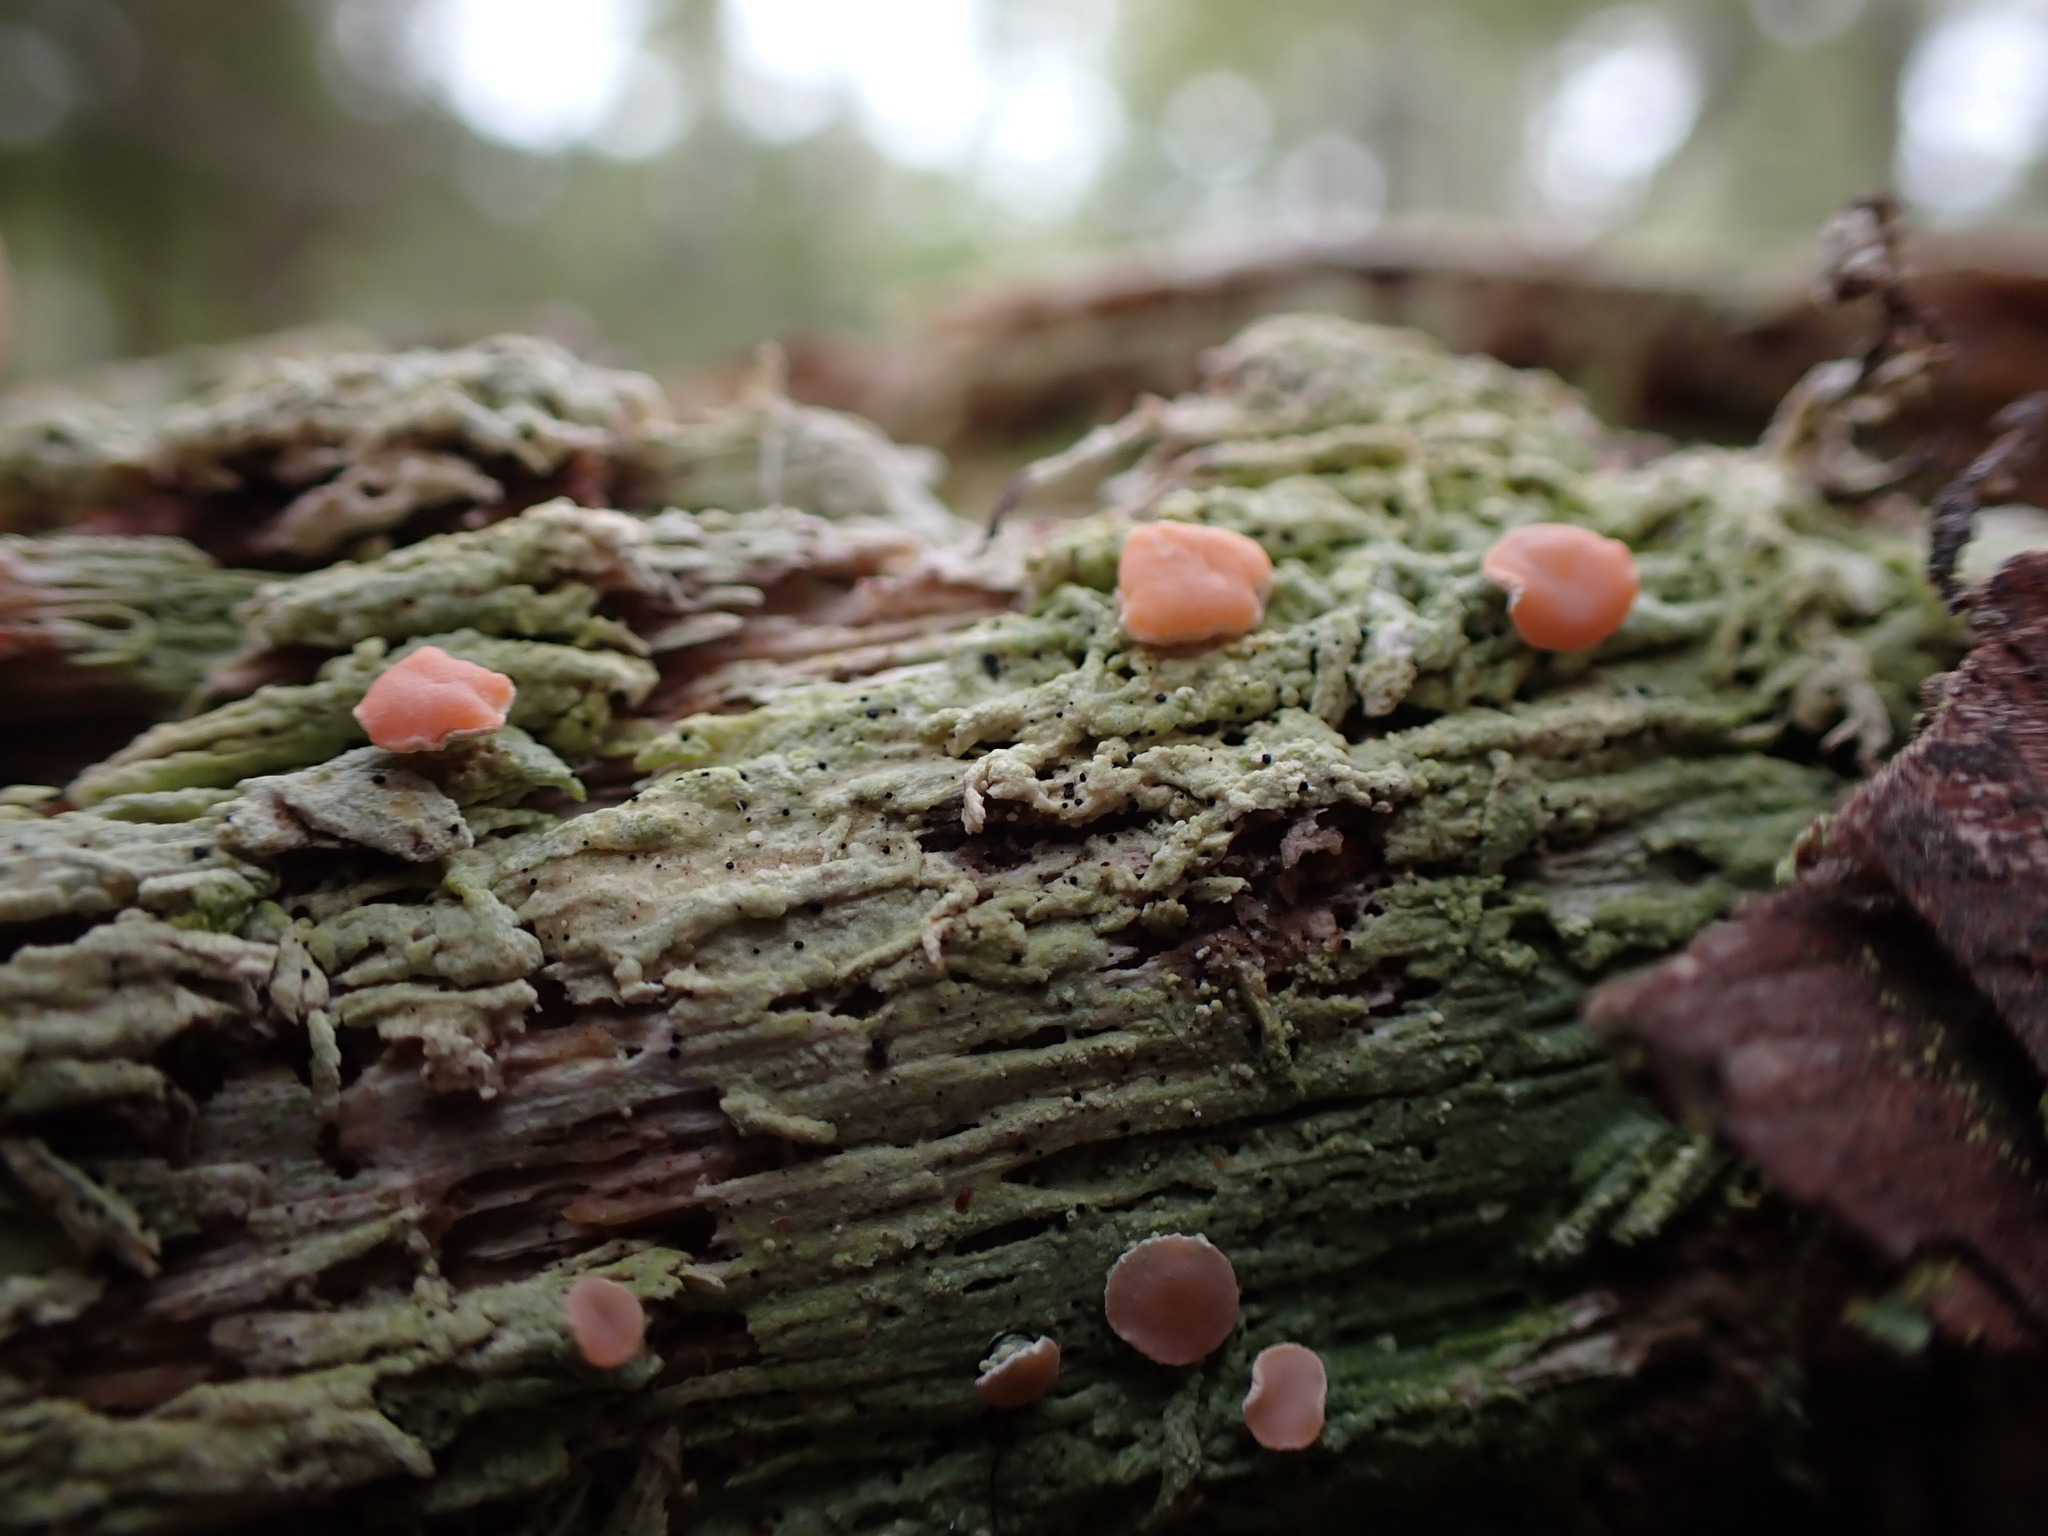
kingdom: Fungi
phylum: Ascomycota
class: Lecanoromycetes
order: Pertusariales
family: Icmadophilaceae
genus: Icmadophila
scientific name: Icmadophila ericetorum
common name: Candy lichen
